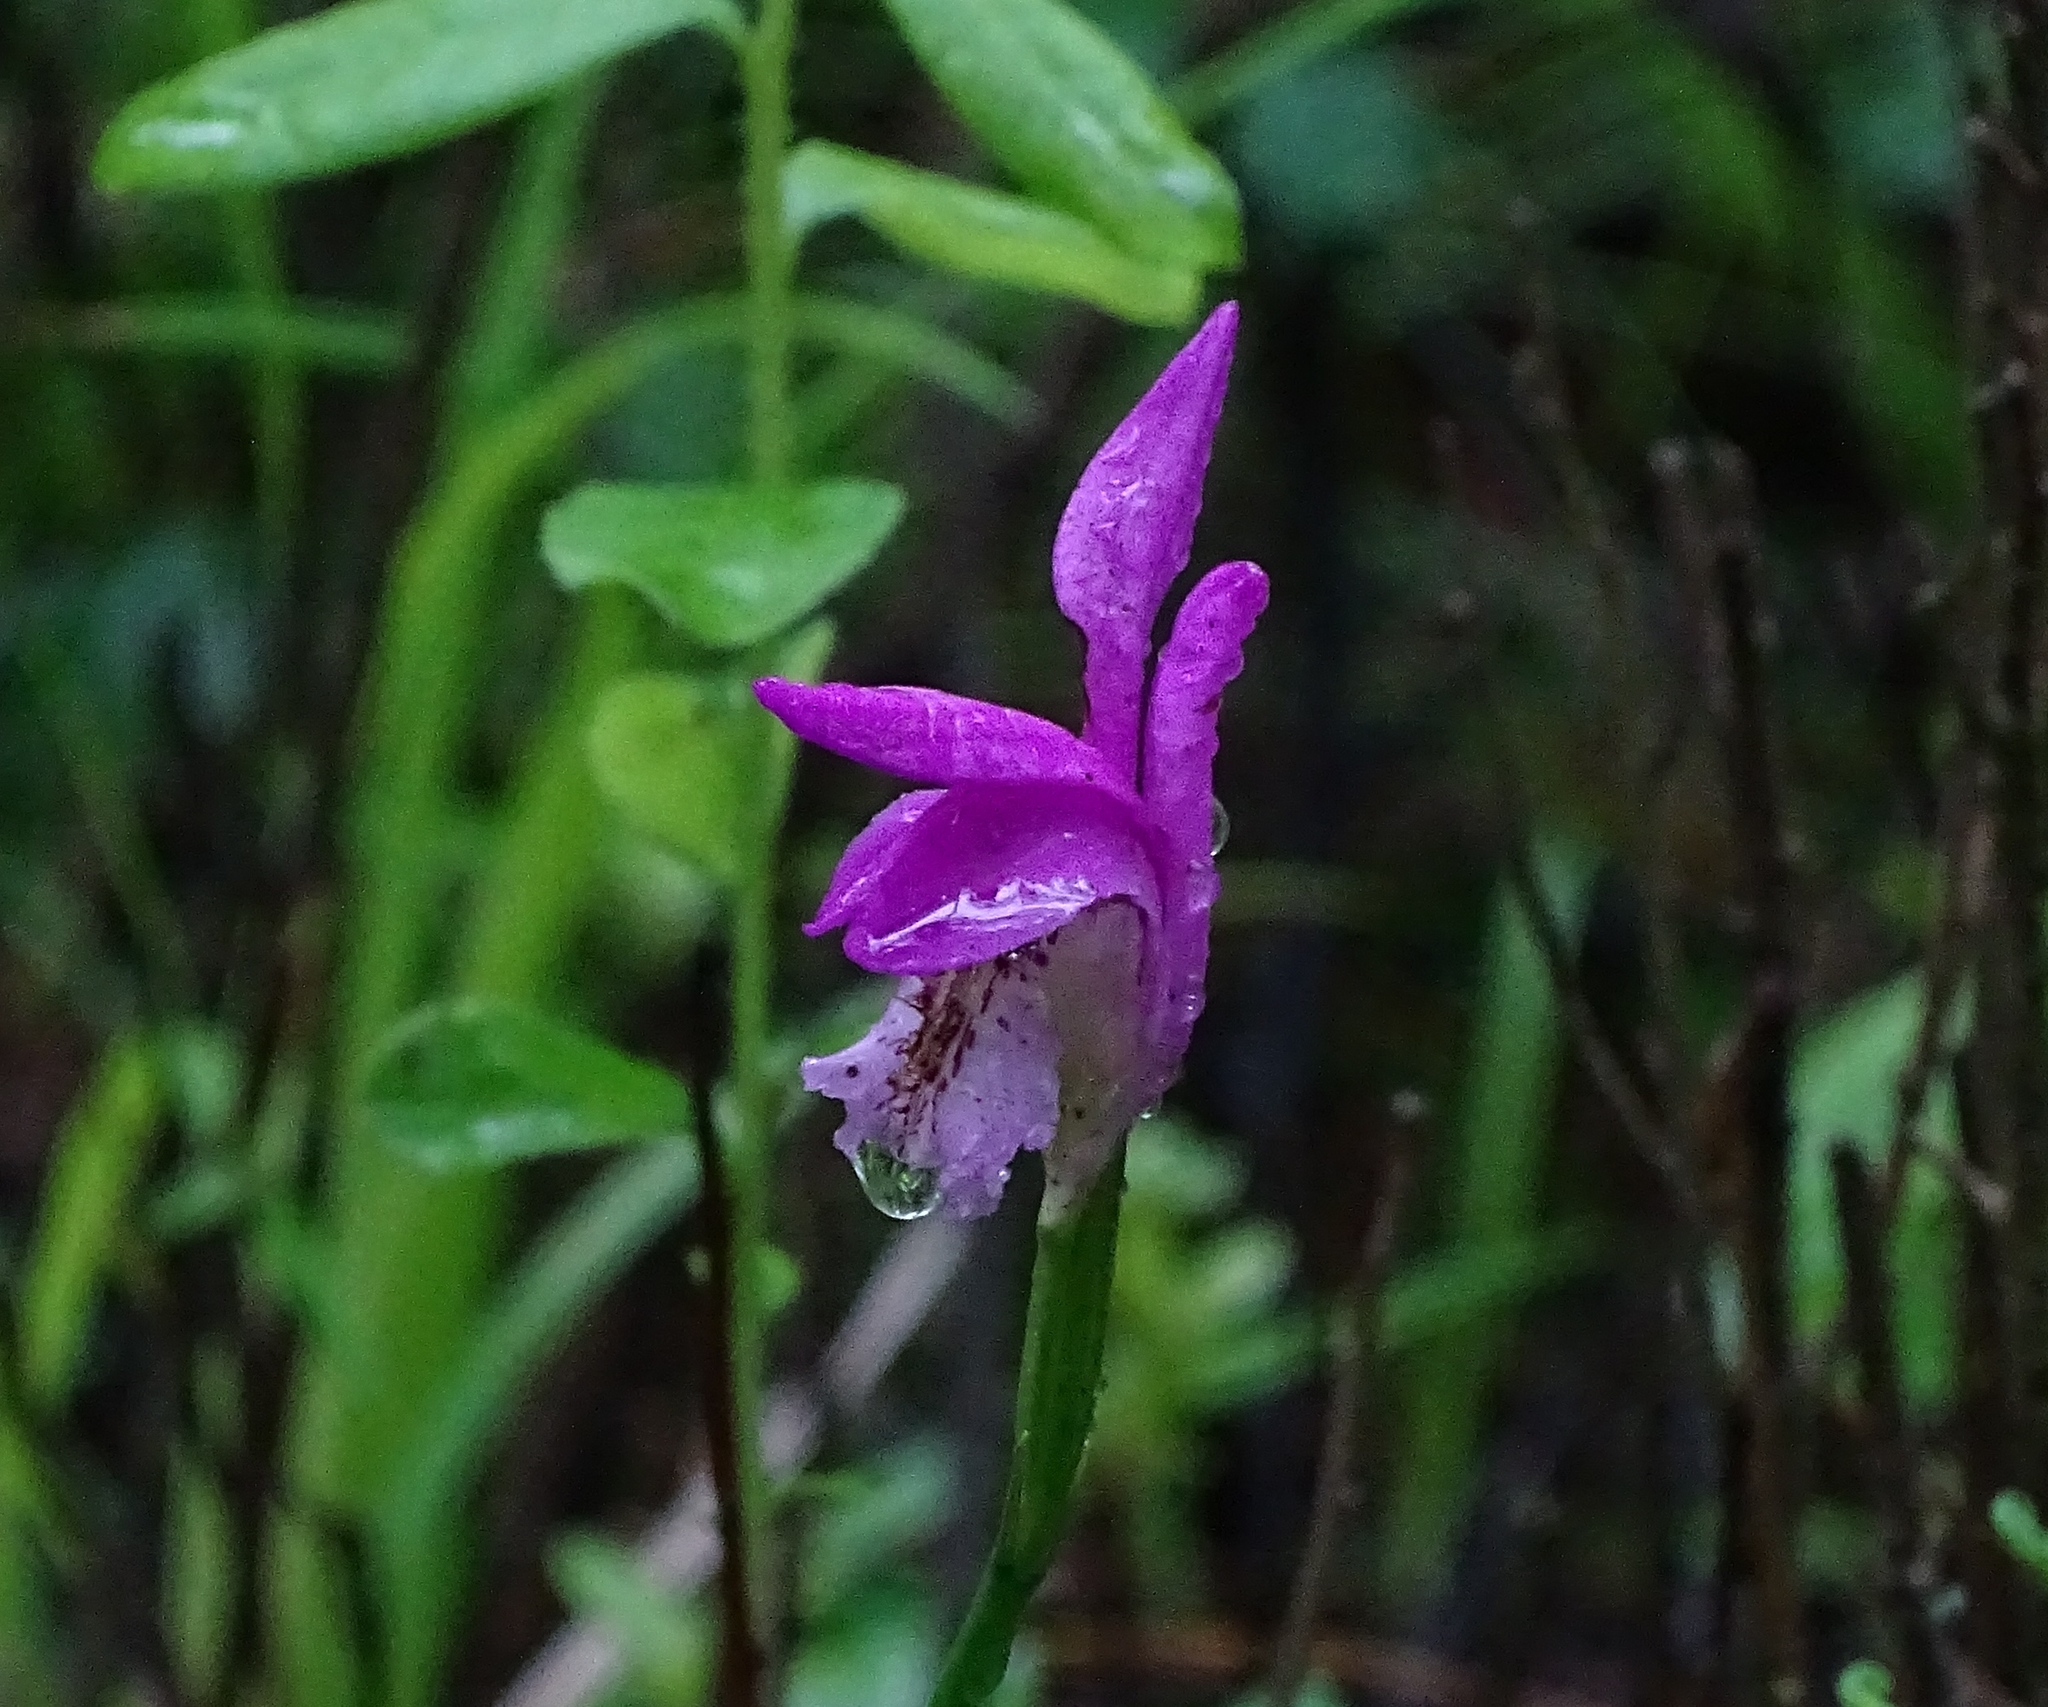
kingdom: Plantae
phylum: Tracheophyta
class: Liliopsida
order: Asparagales
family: Orchidaceae
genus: Arethusa
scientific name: Arethusa bulbosa
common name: Arethusa
